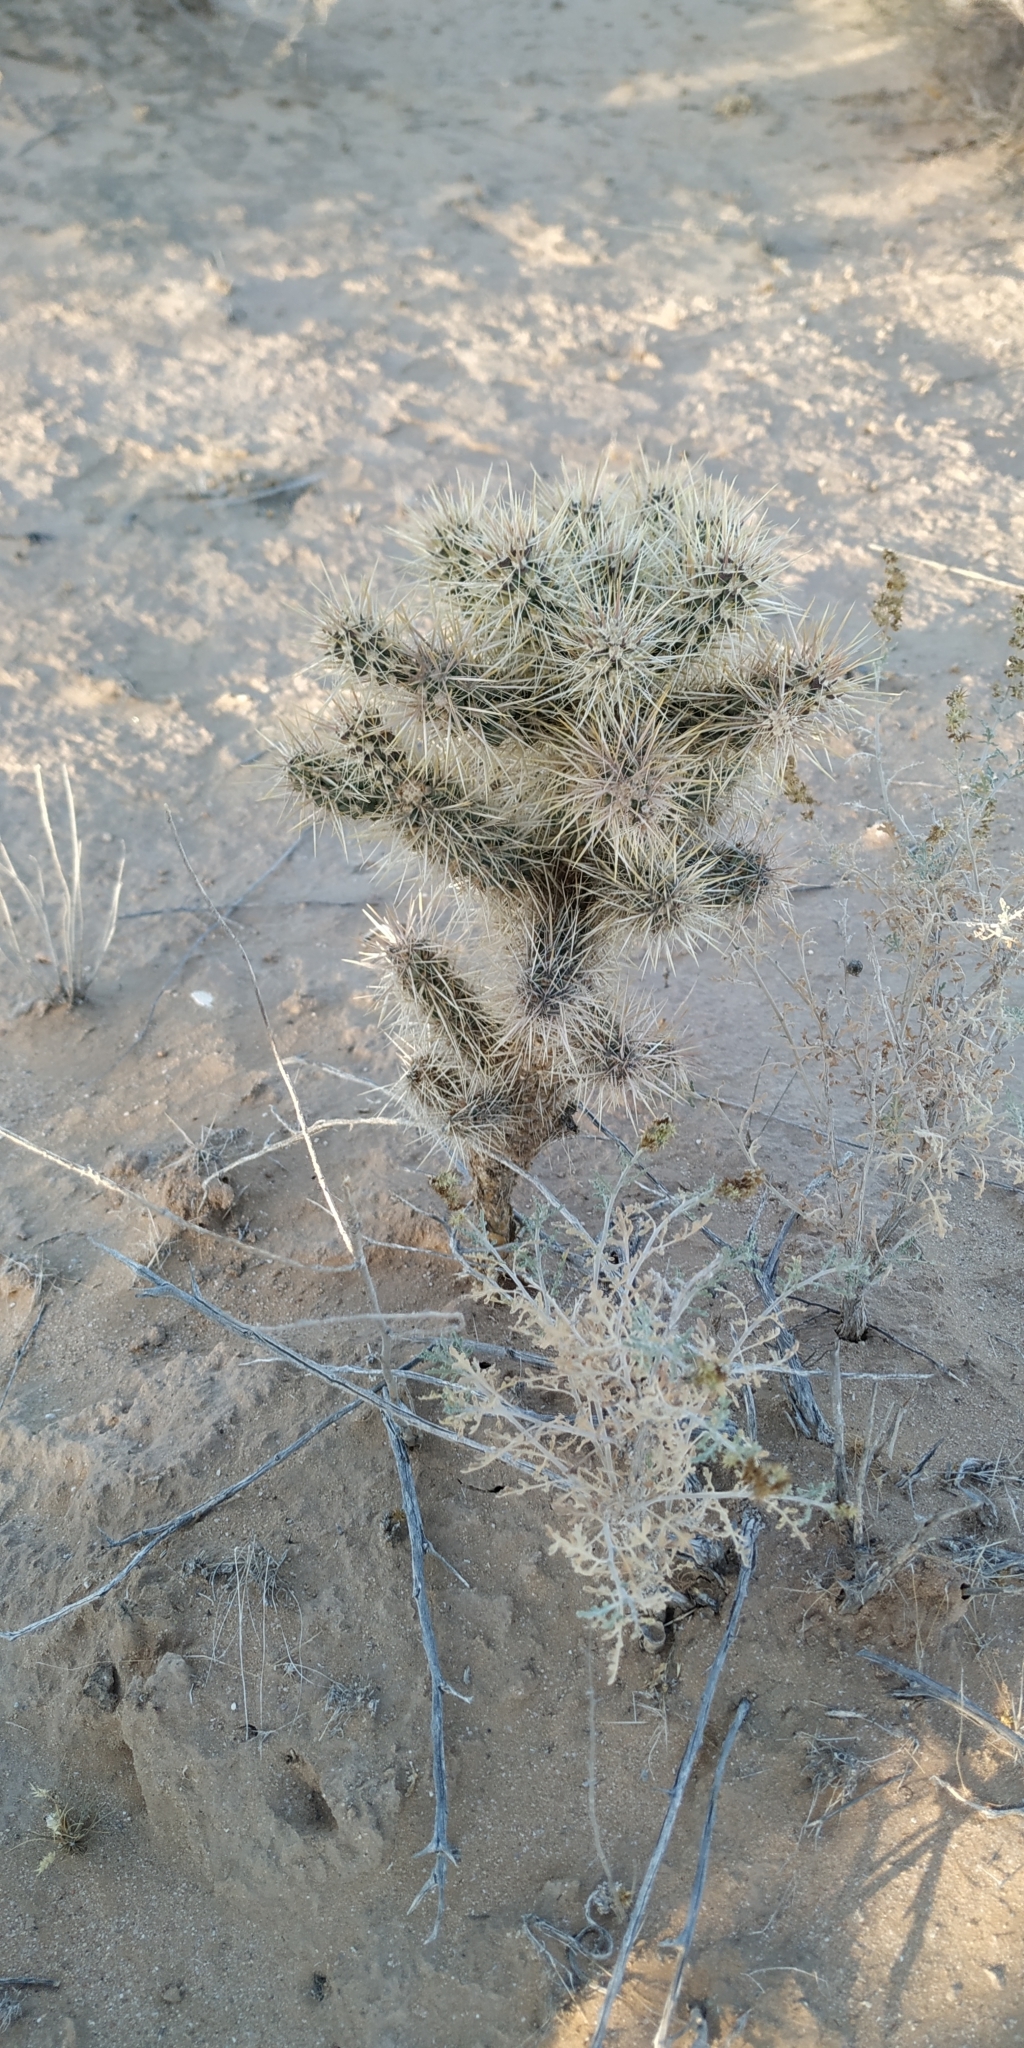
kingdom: Plantae
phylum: Tracheophyta
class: Magnoliopsida
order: Caryophyllales
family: Cactaceae
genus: Cylindropuntia
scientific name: Cylindropuntia fosbergii
